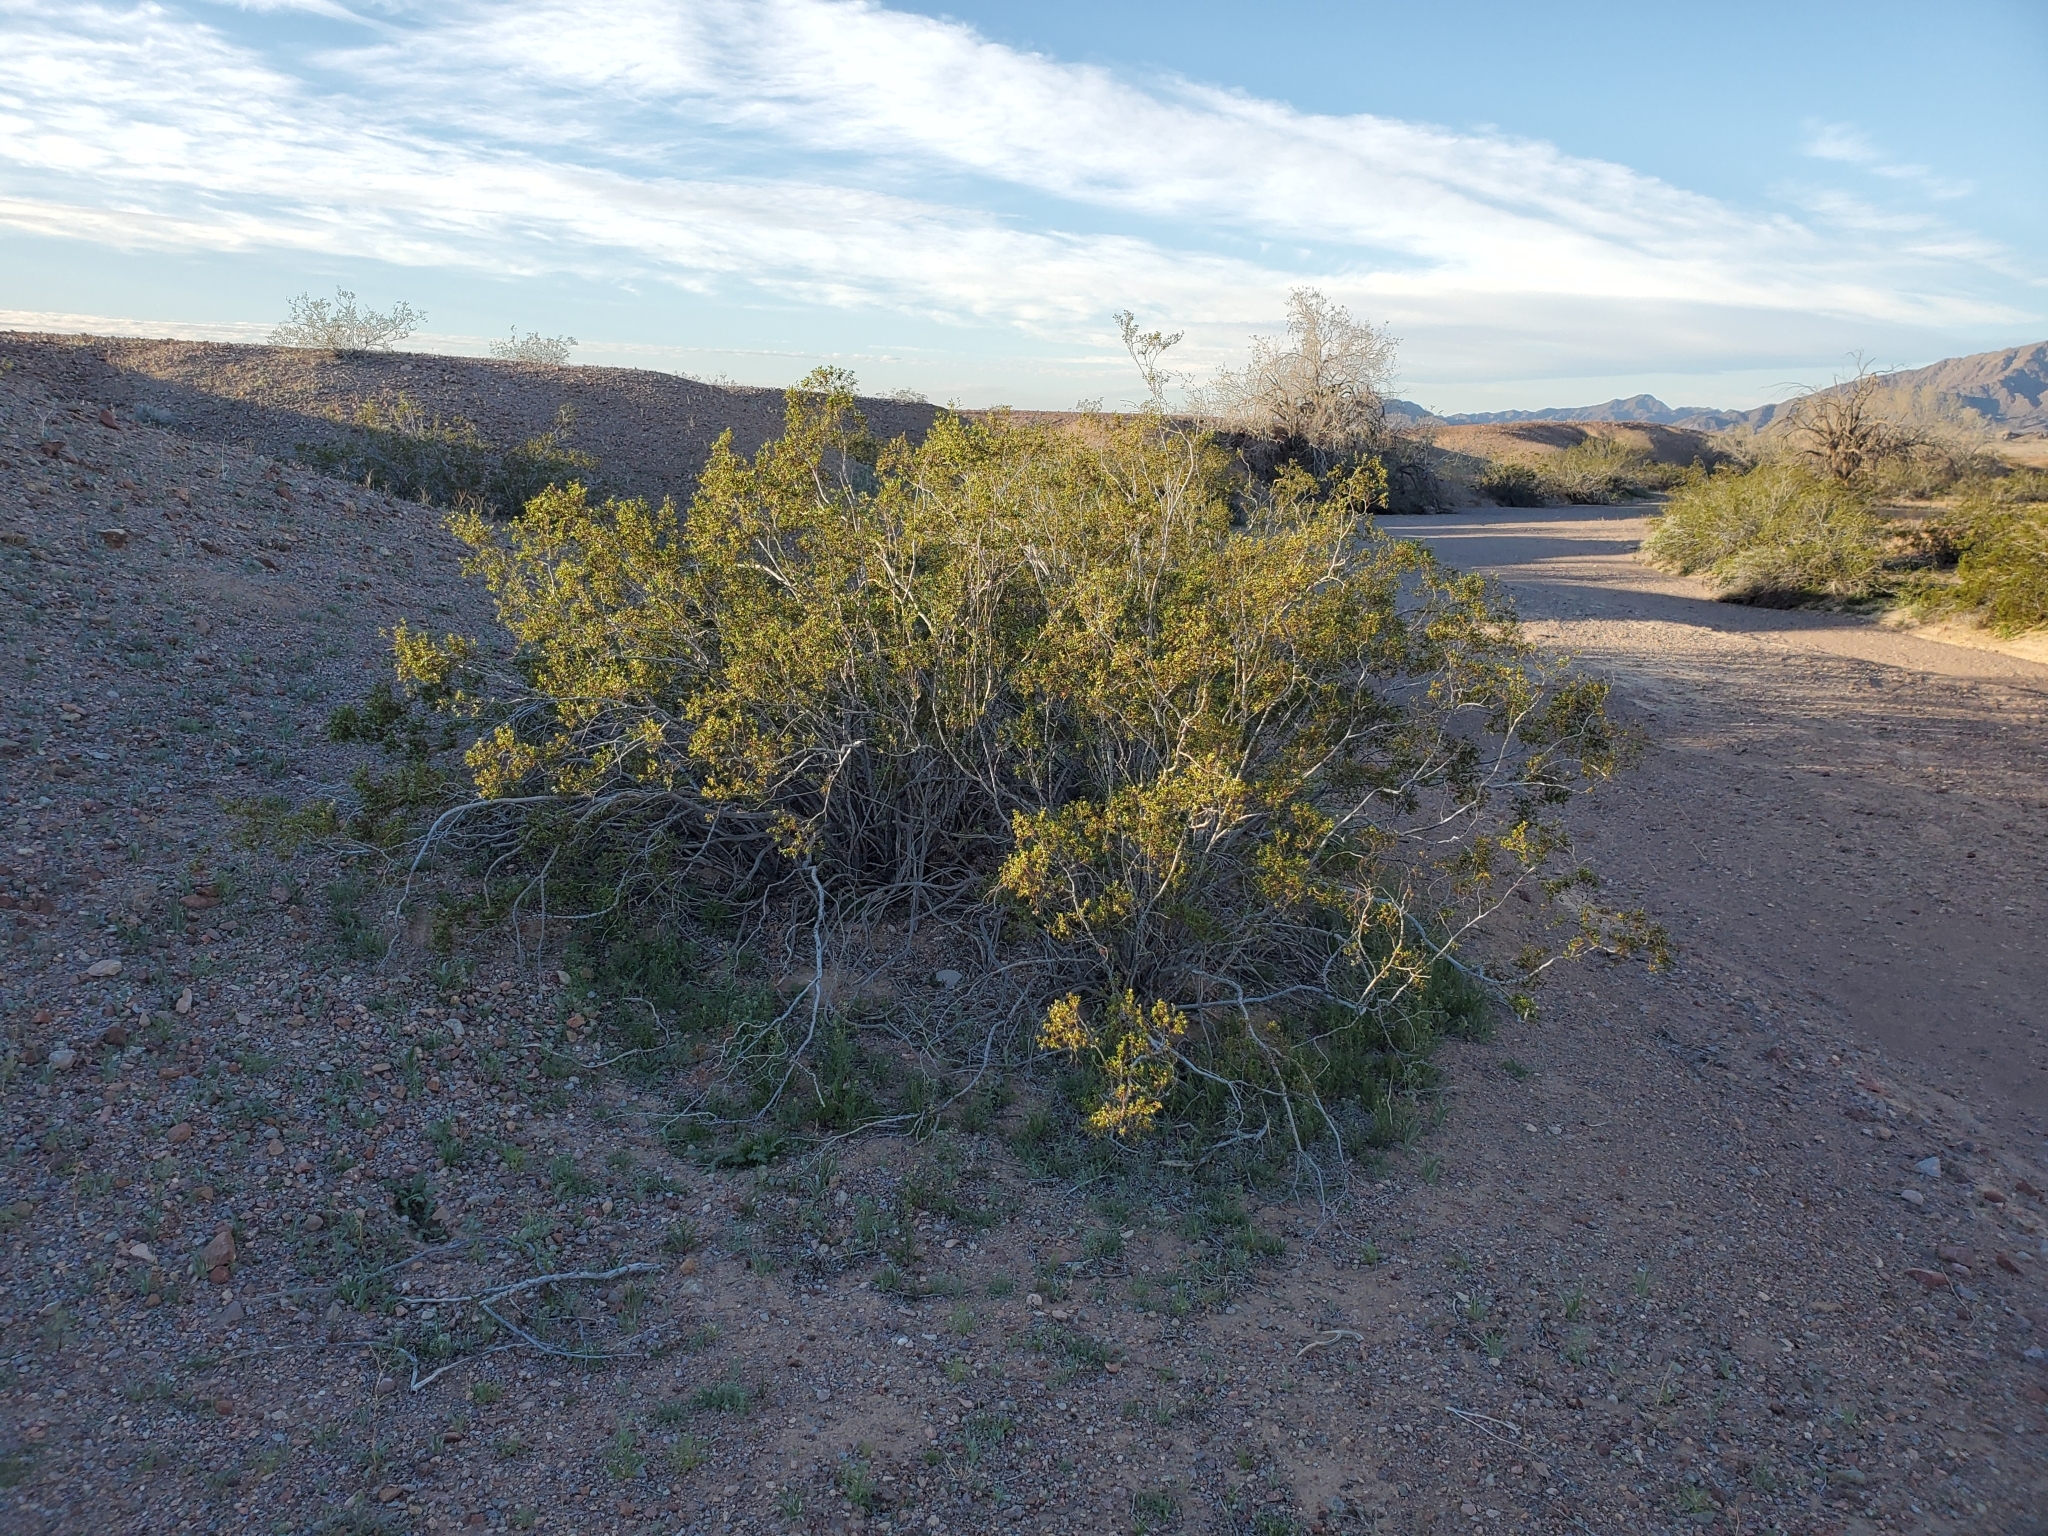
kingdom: Plantae
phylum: Tracheophyta
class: Magnoliopsida
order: Zygophyllales
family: Zygophyllaceae
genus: Larrea
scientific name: Larrea tridentata
